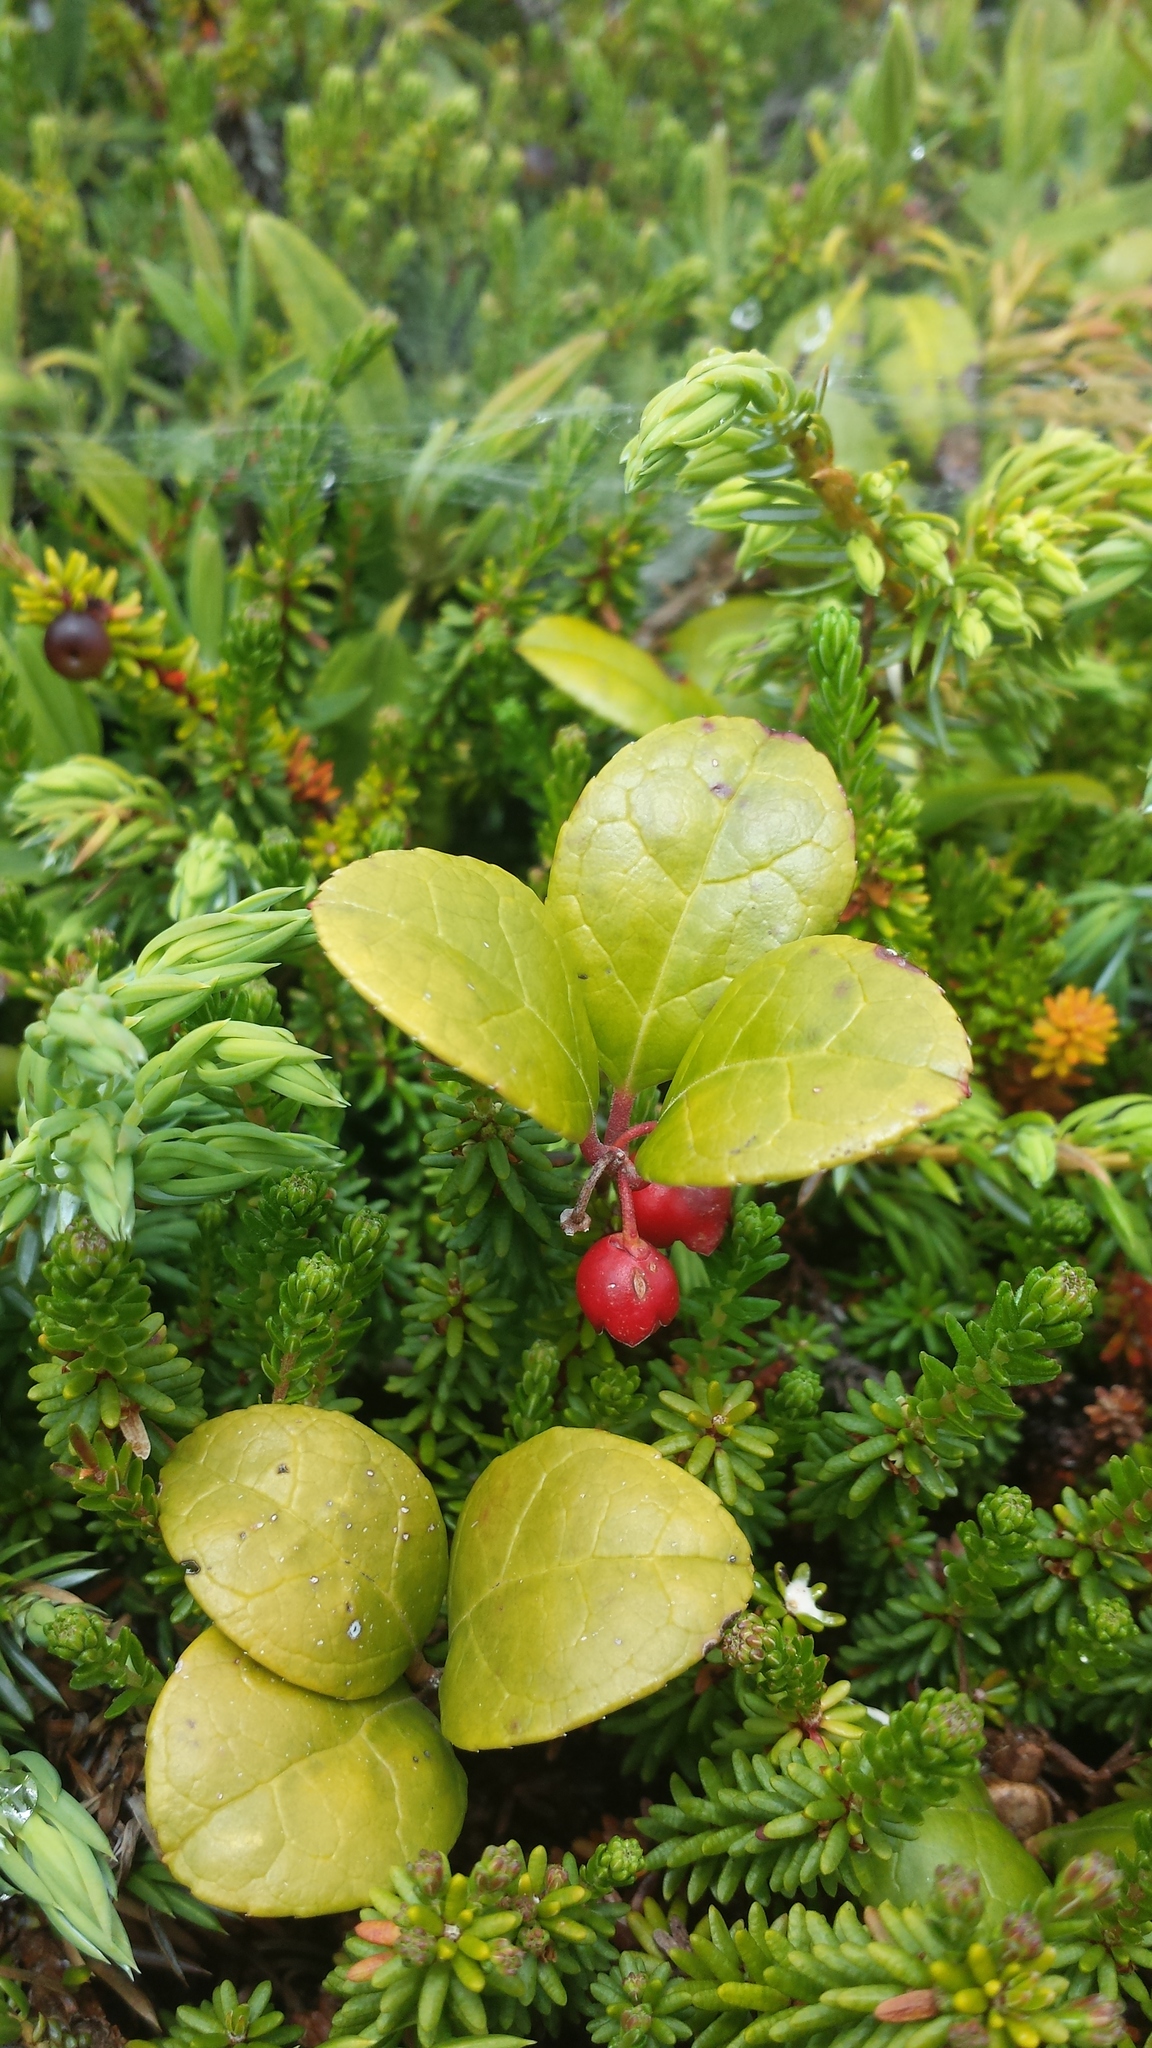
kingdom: Plantae
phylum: Tracheophyta
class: Magnoliopsida
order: Ericales
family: Ericaceae
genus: Gaultheria
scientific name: Gaultheria procumbens
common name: Checkerberry
